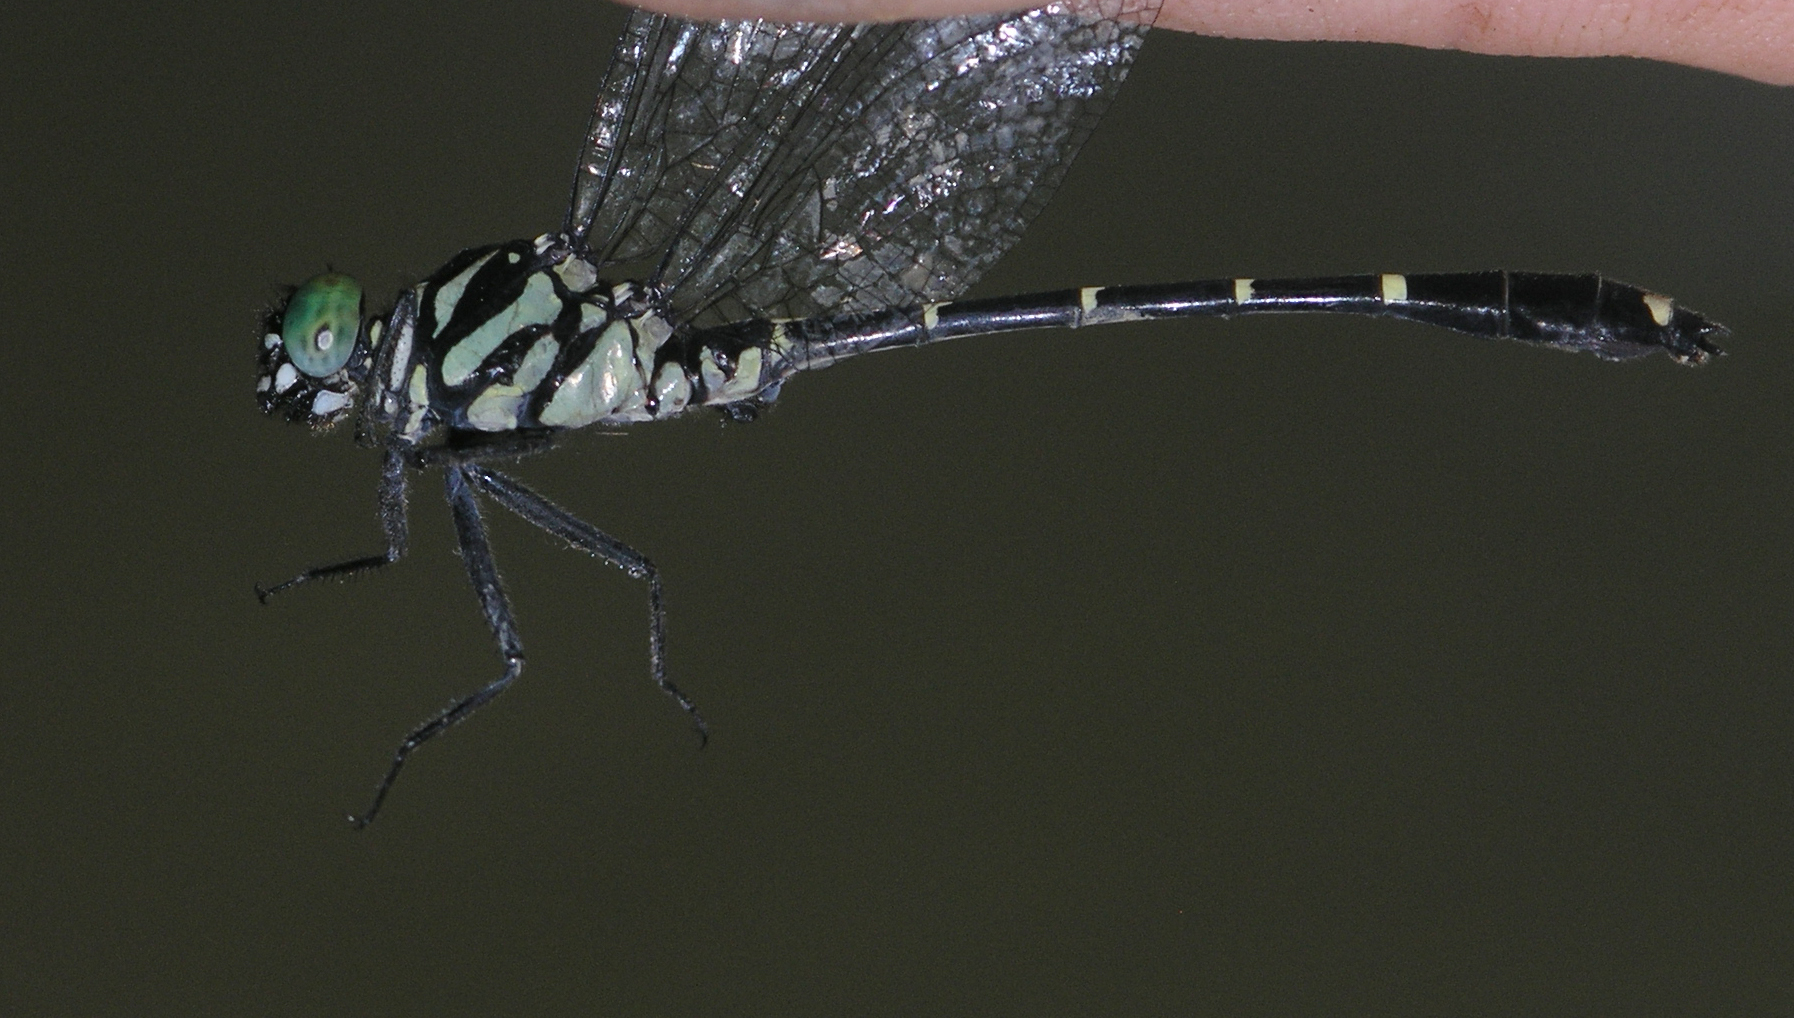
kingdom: Animalia
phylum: Arthropoda
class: Insecta
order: Odonata
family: Gomphidae
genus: Burmagomphus
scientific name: Burmagomphus divaricatus
